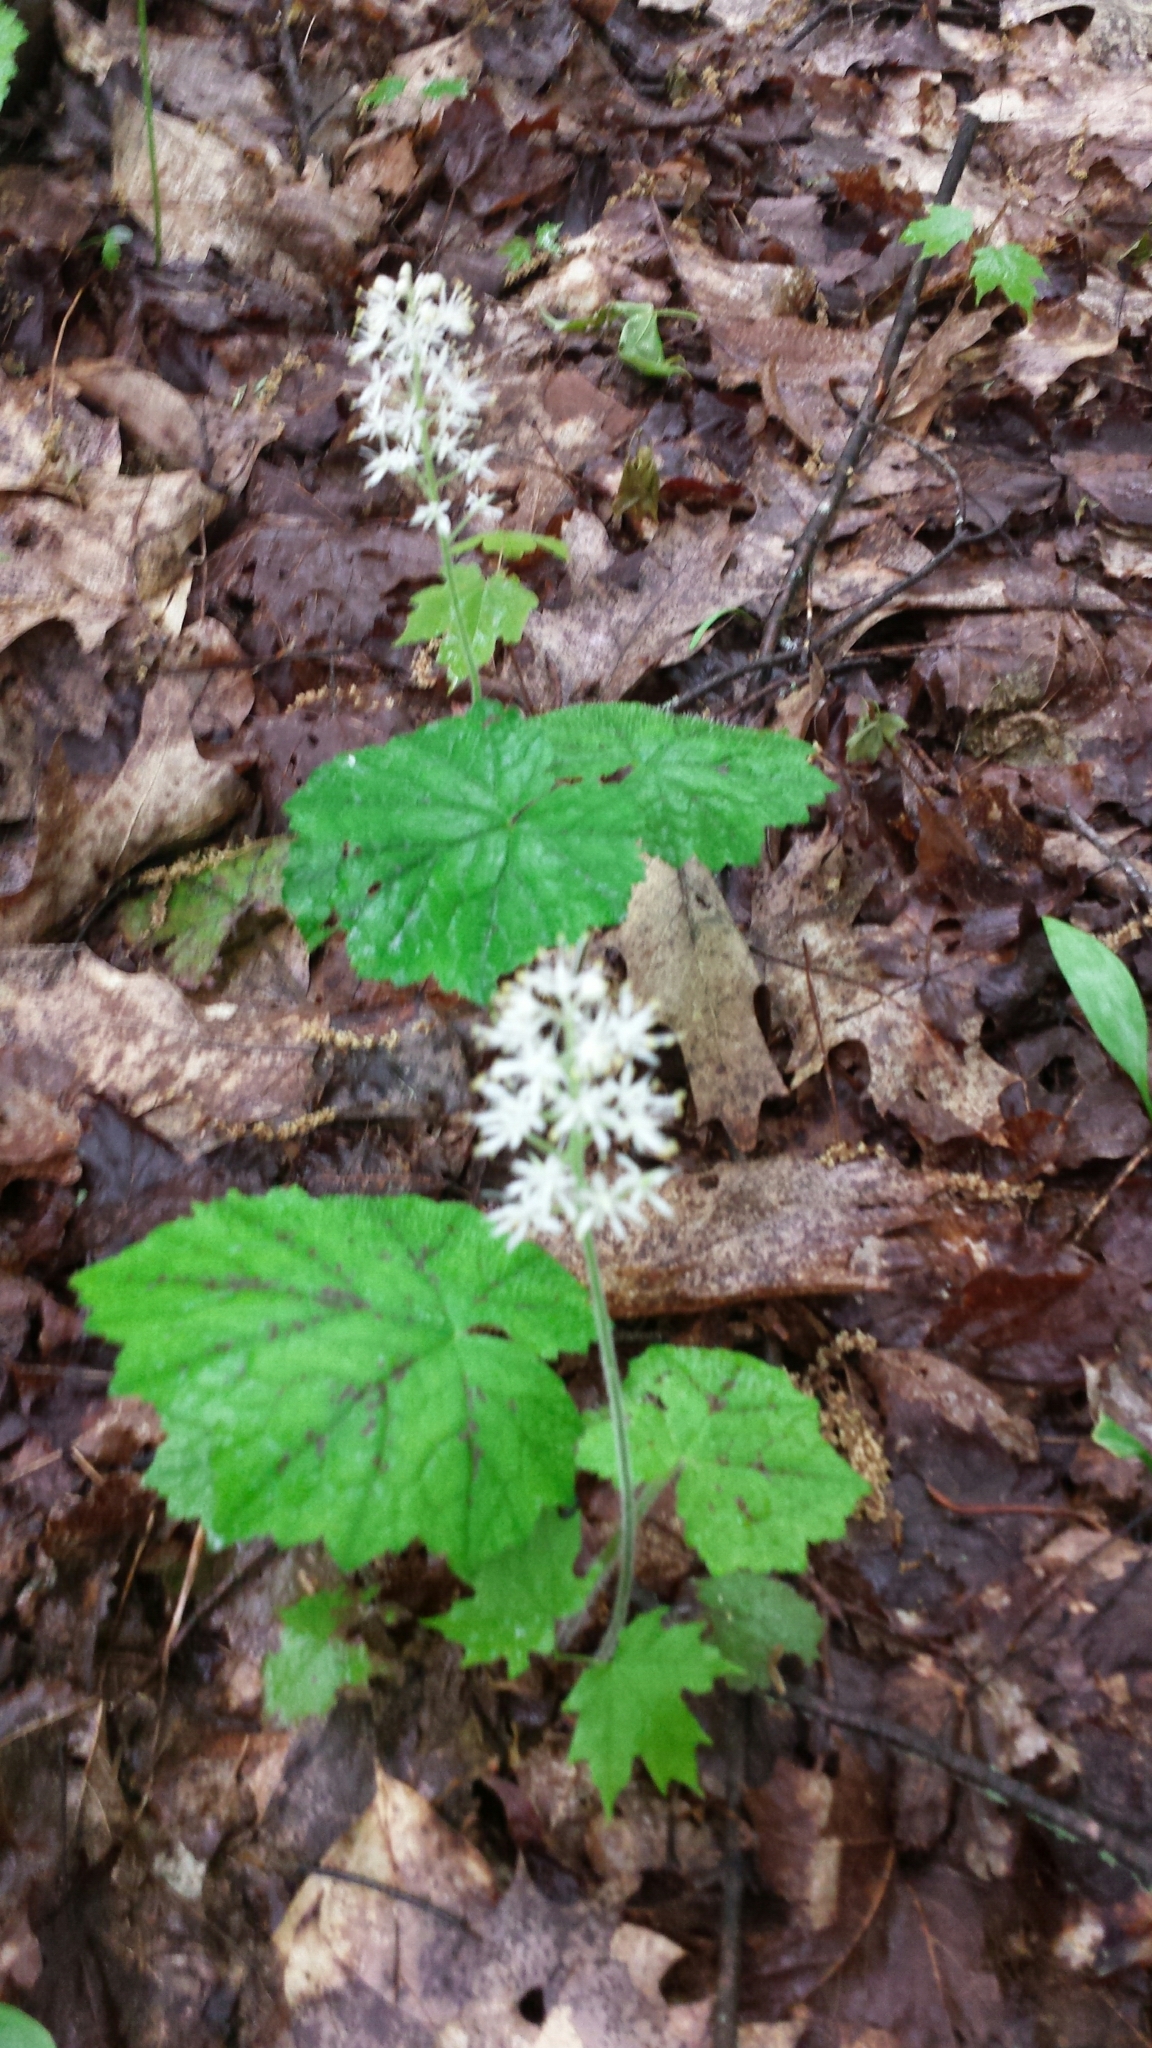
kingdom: Plantae
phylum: Tracheophyta
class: Magnoliopsida
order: Saxifragales
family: Saxifragaceae
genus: Tiarella
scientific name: Tiarella stolonifera
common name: Stoloniferous foamflower
